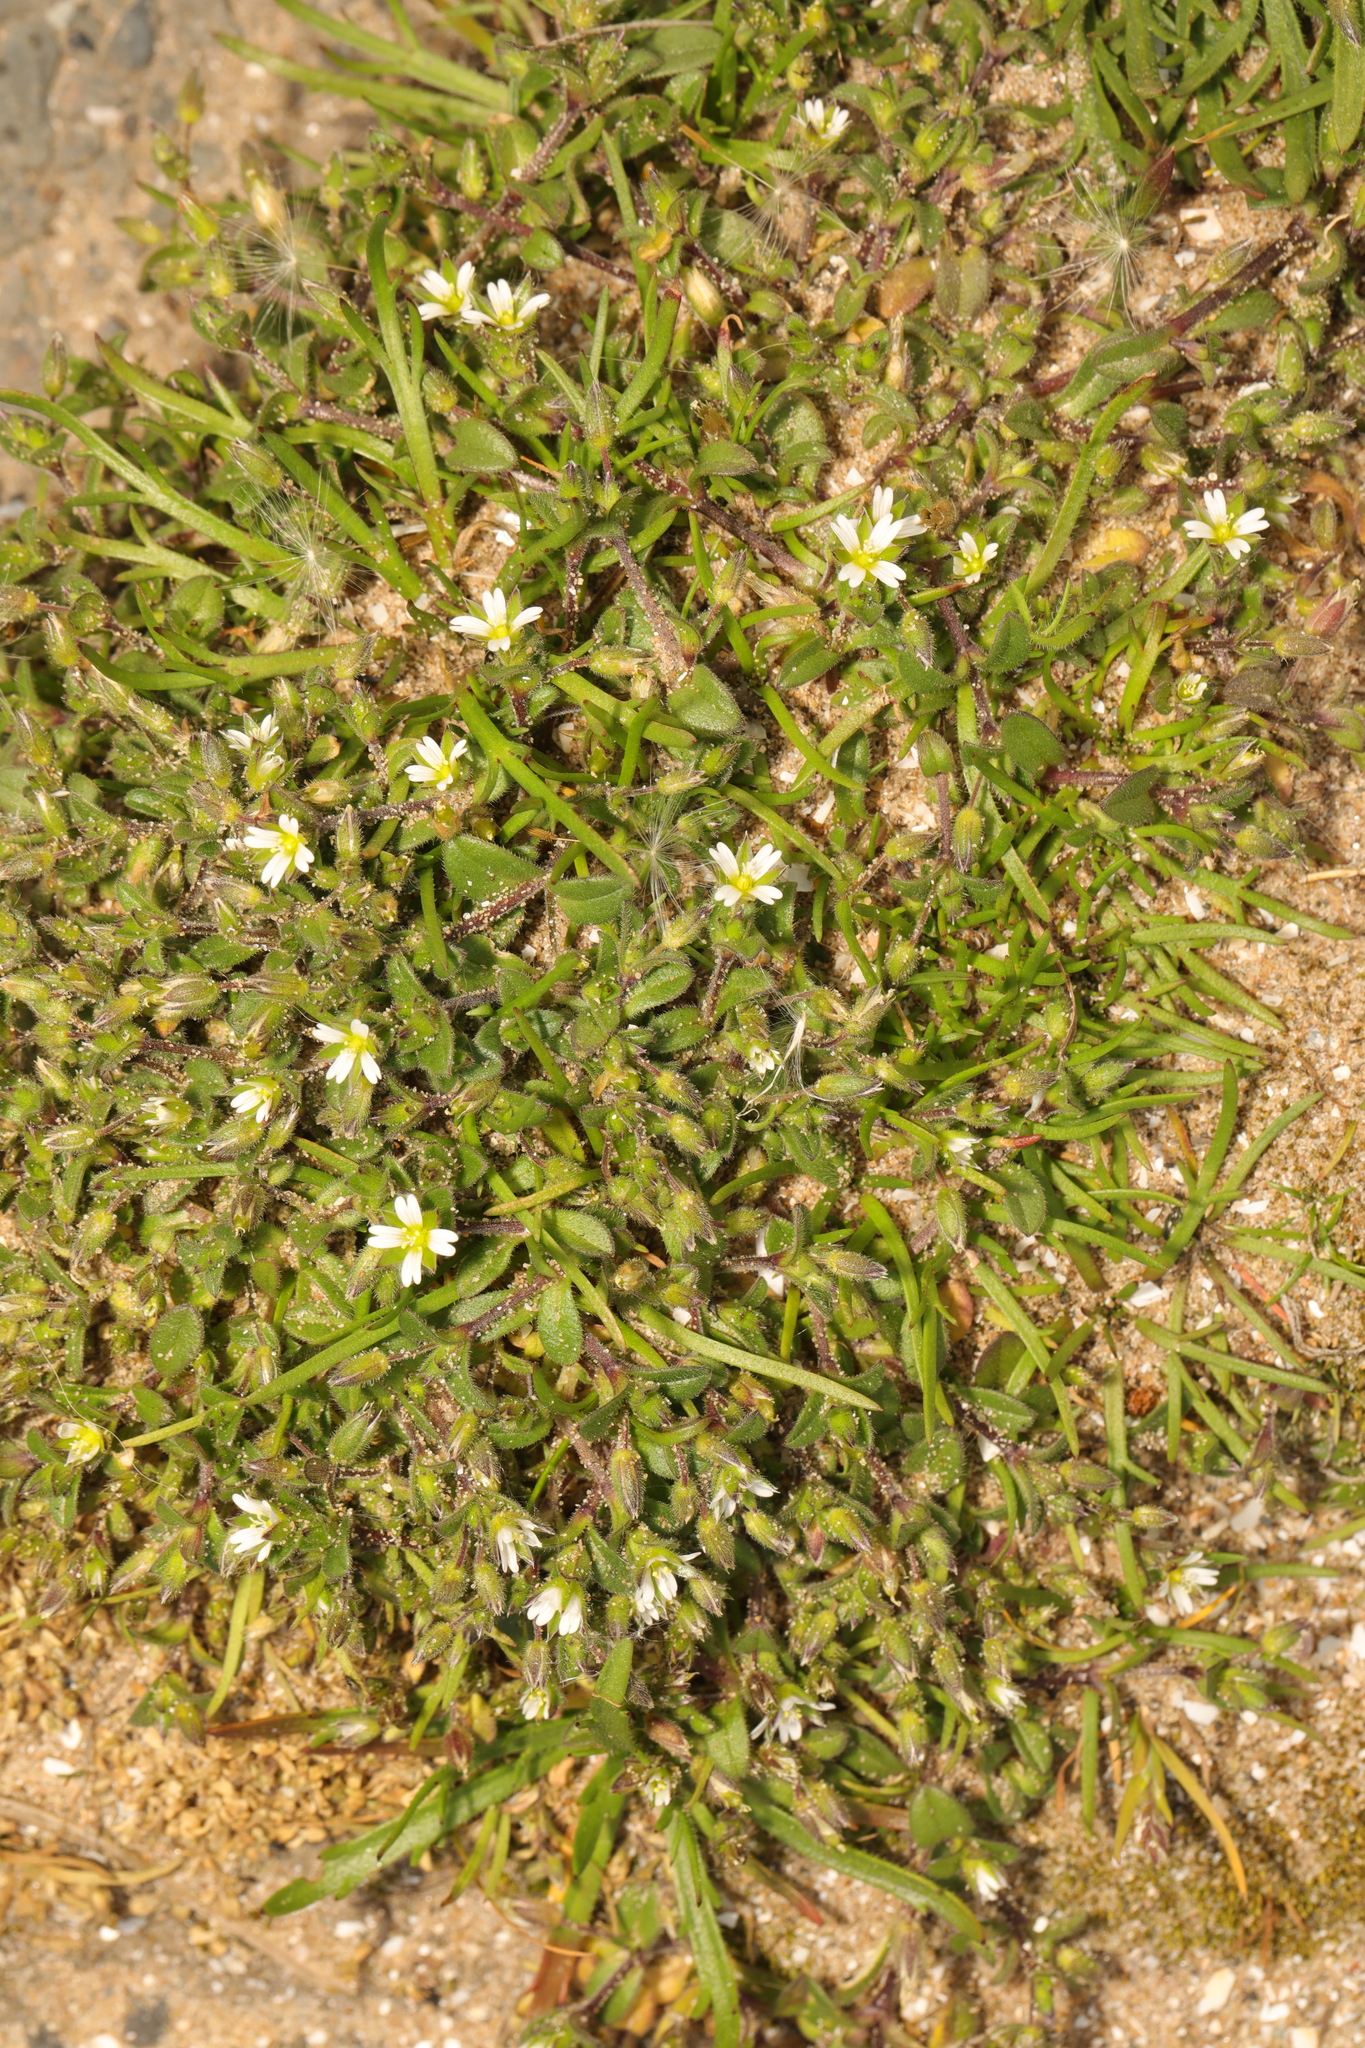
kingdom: Plantae
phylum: Tracheophyta
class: Magnoliopsida
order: Caryophyllales
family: Caryophyllaceae
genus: Cerastium
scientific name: Cerastium diffusum
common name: Fourstamen chickweed
